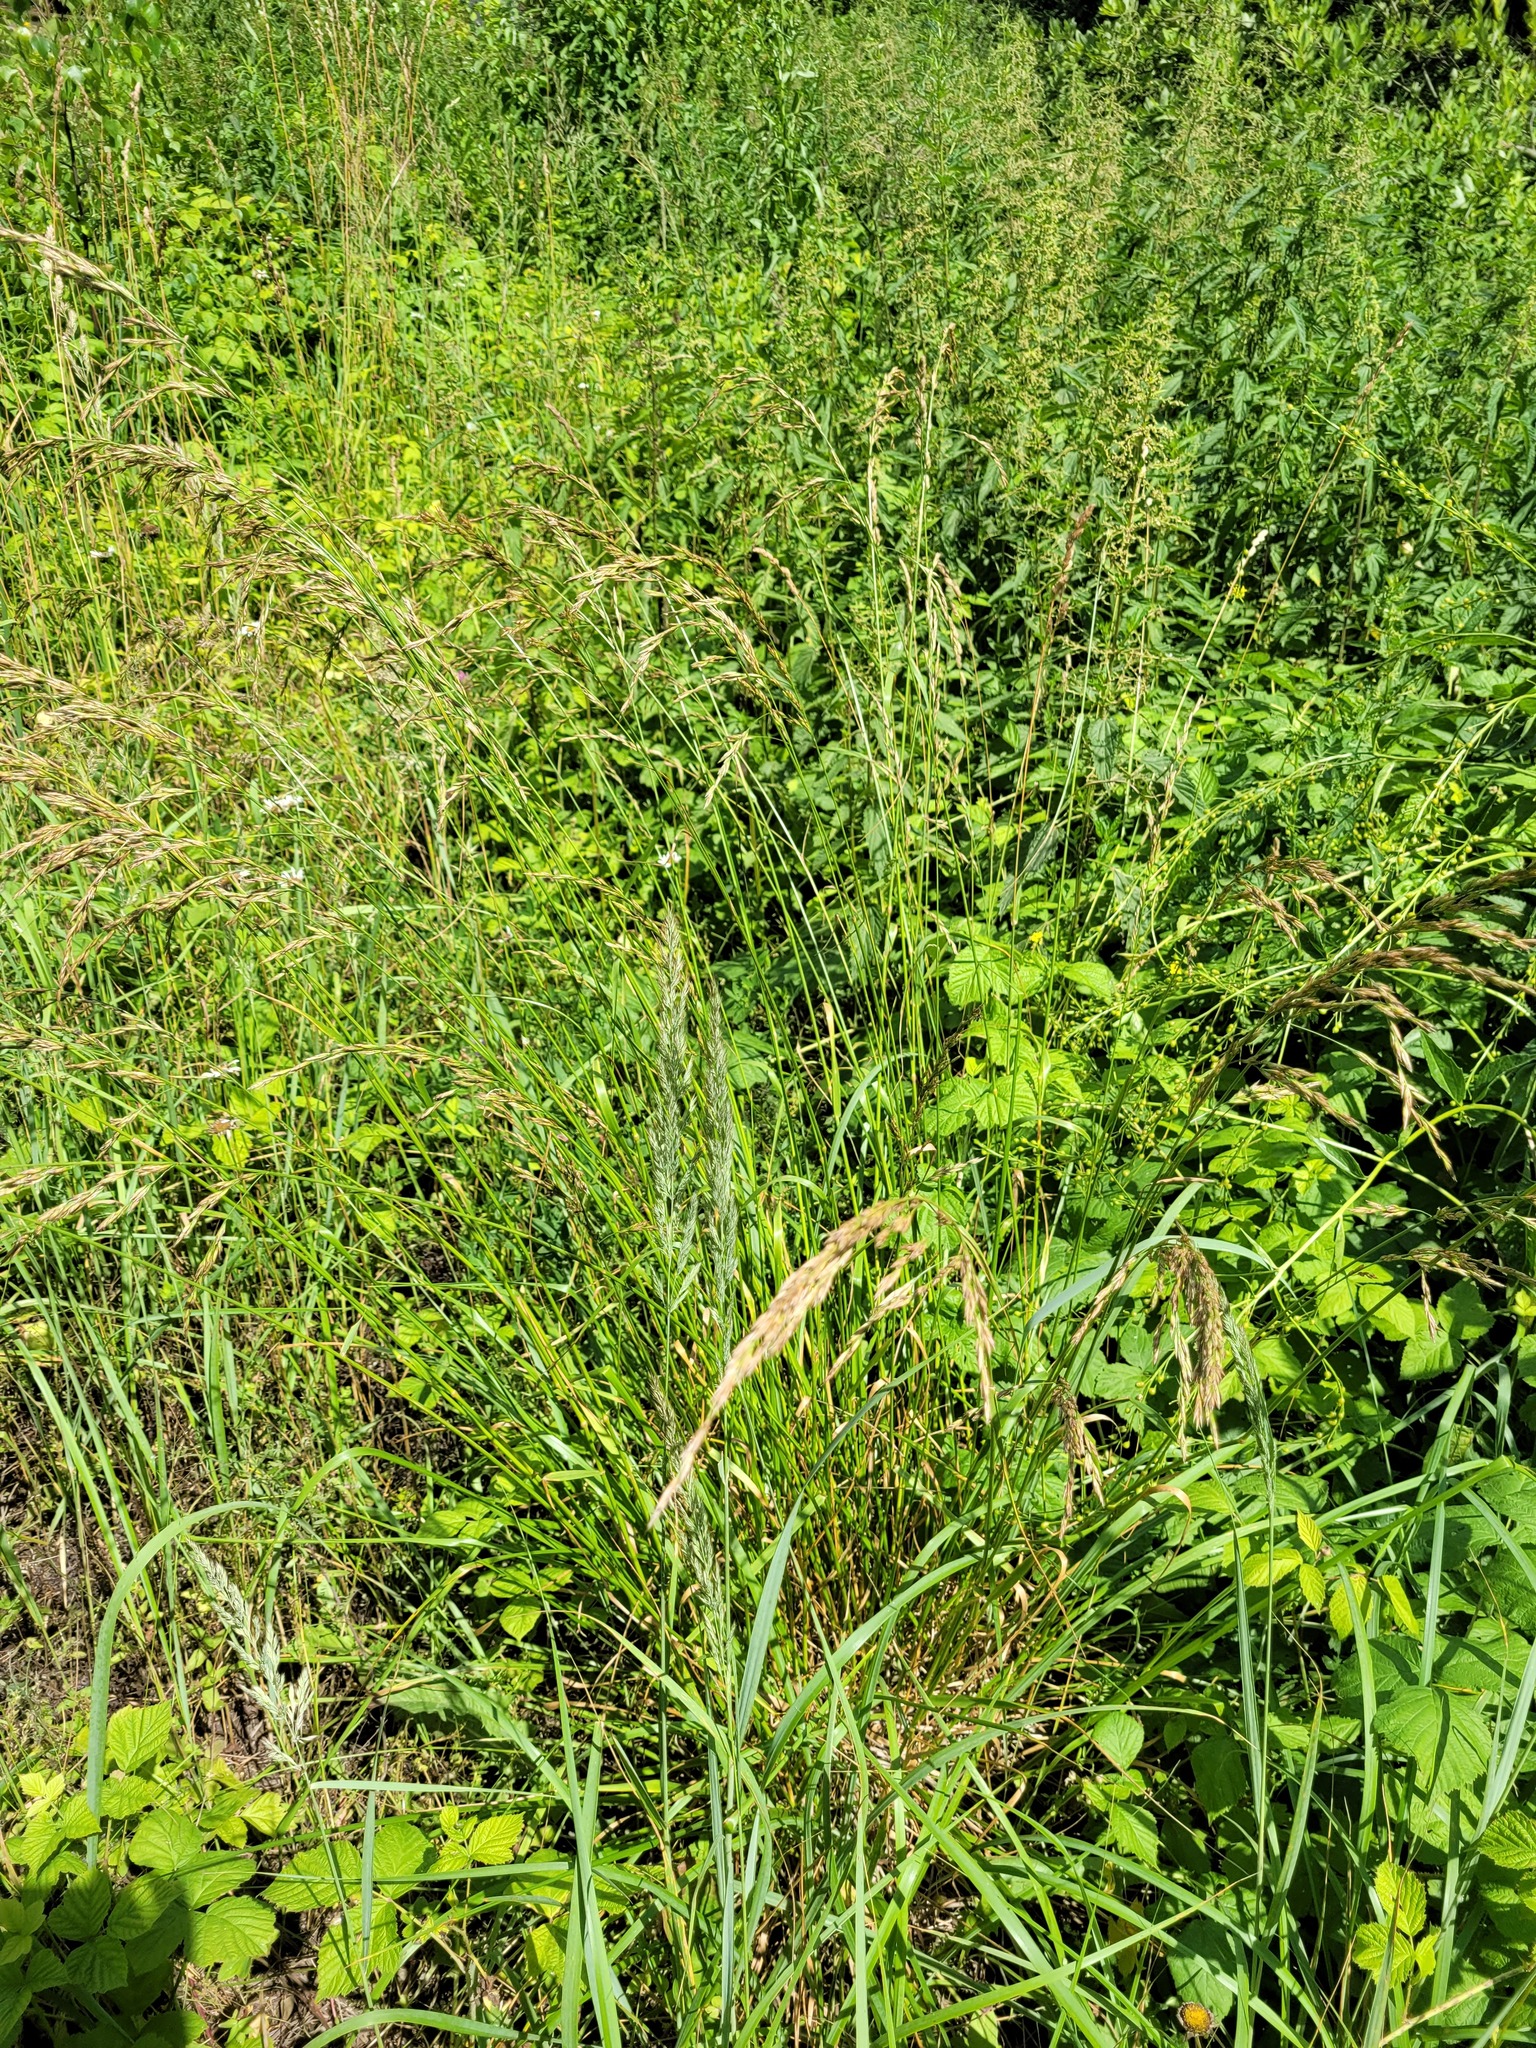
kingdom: Plantae
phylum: Tracheophyta
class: Liliopsida
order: Poales
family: Poaceae
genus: Lolium
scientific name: Lolium arundinaceum
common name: Reed fescue
